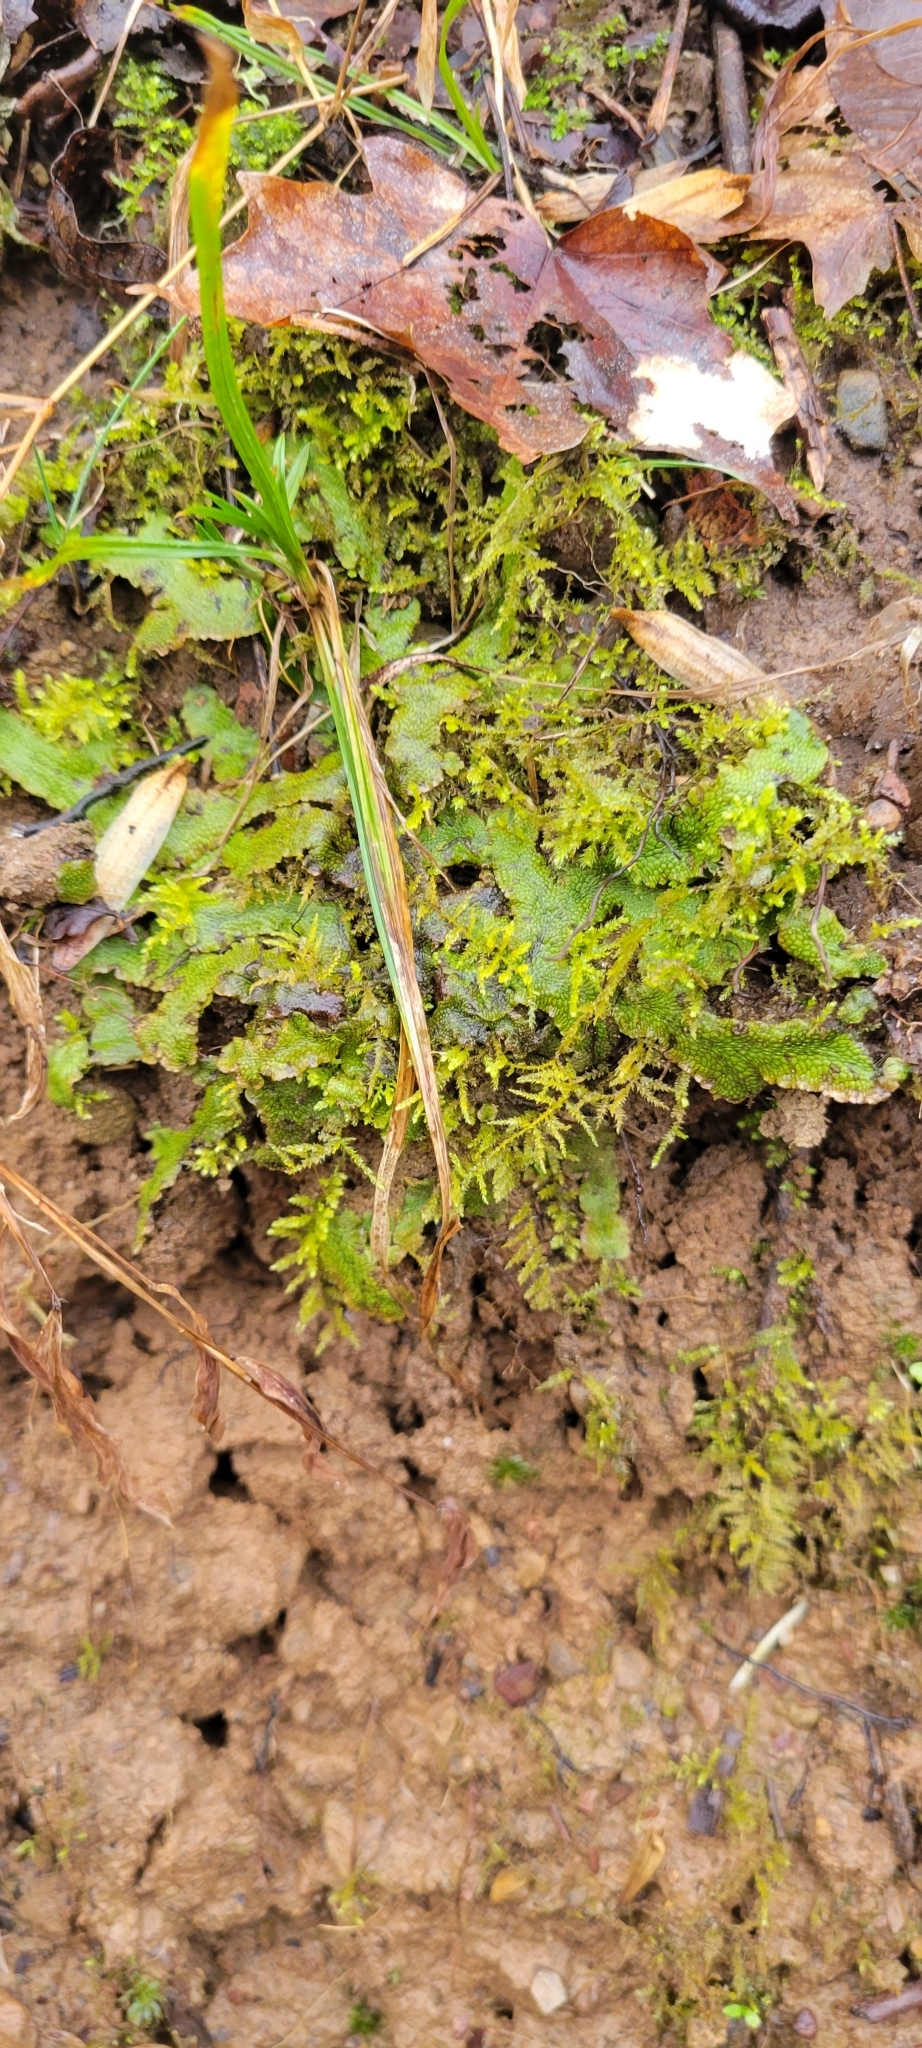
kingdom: Plantae
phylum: Marchantiophyta
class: Marchantiopsida
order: Marchantiales
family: Conocephalaceae
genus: Conocephalum
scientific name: Conocephalum salebrosum
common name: Cat-tongue liverwort
